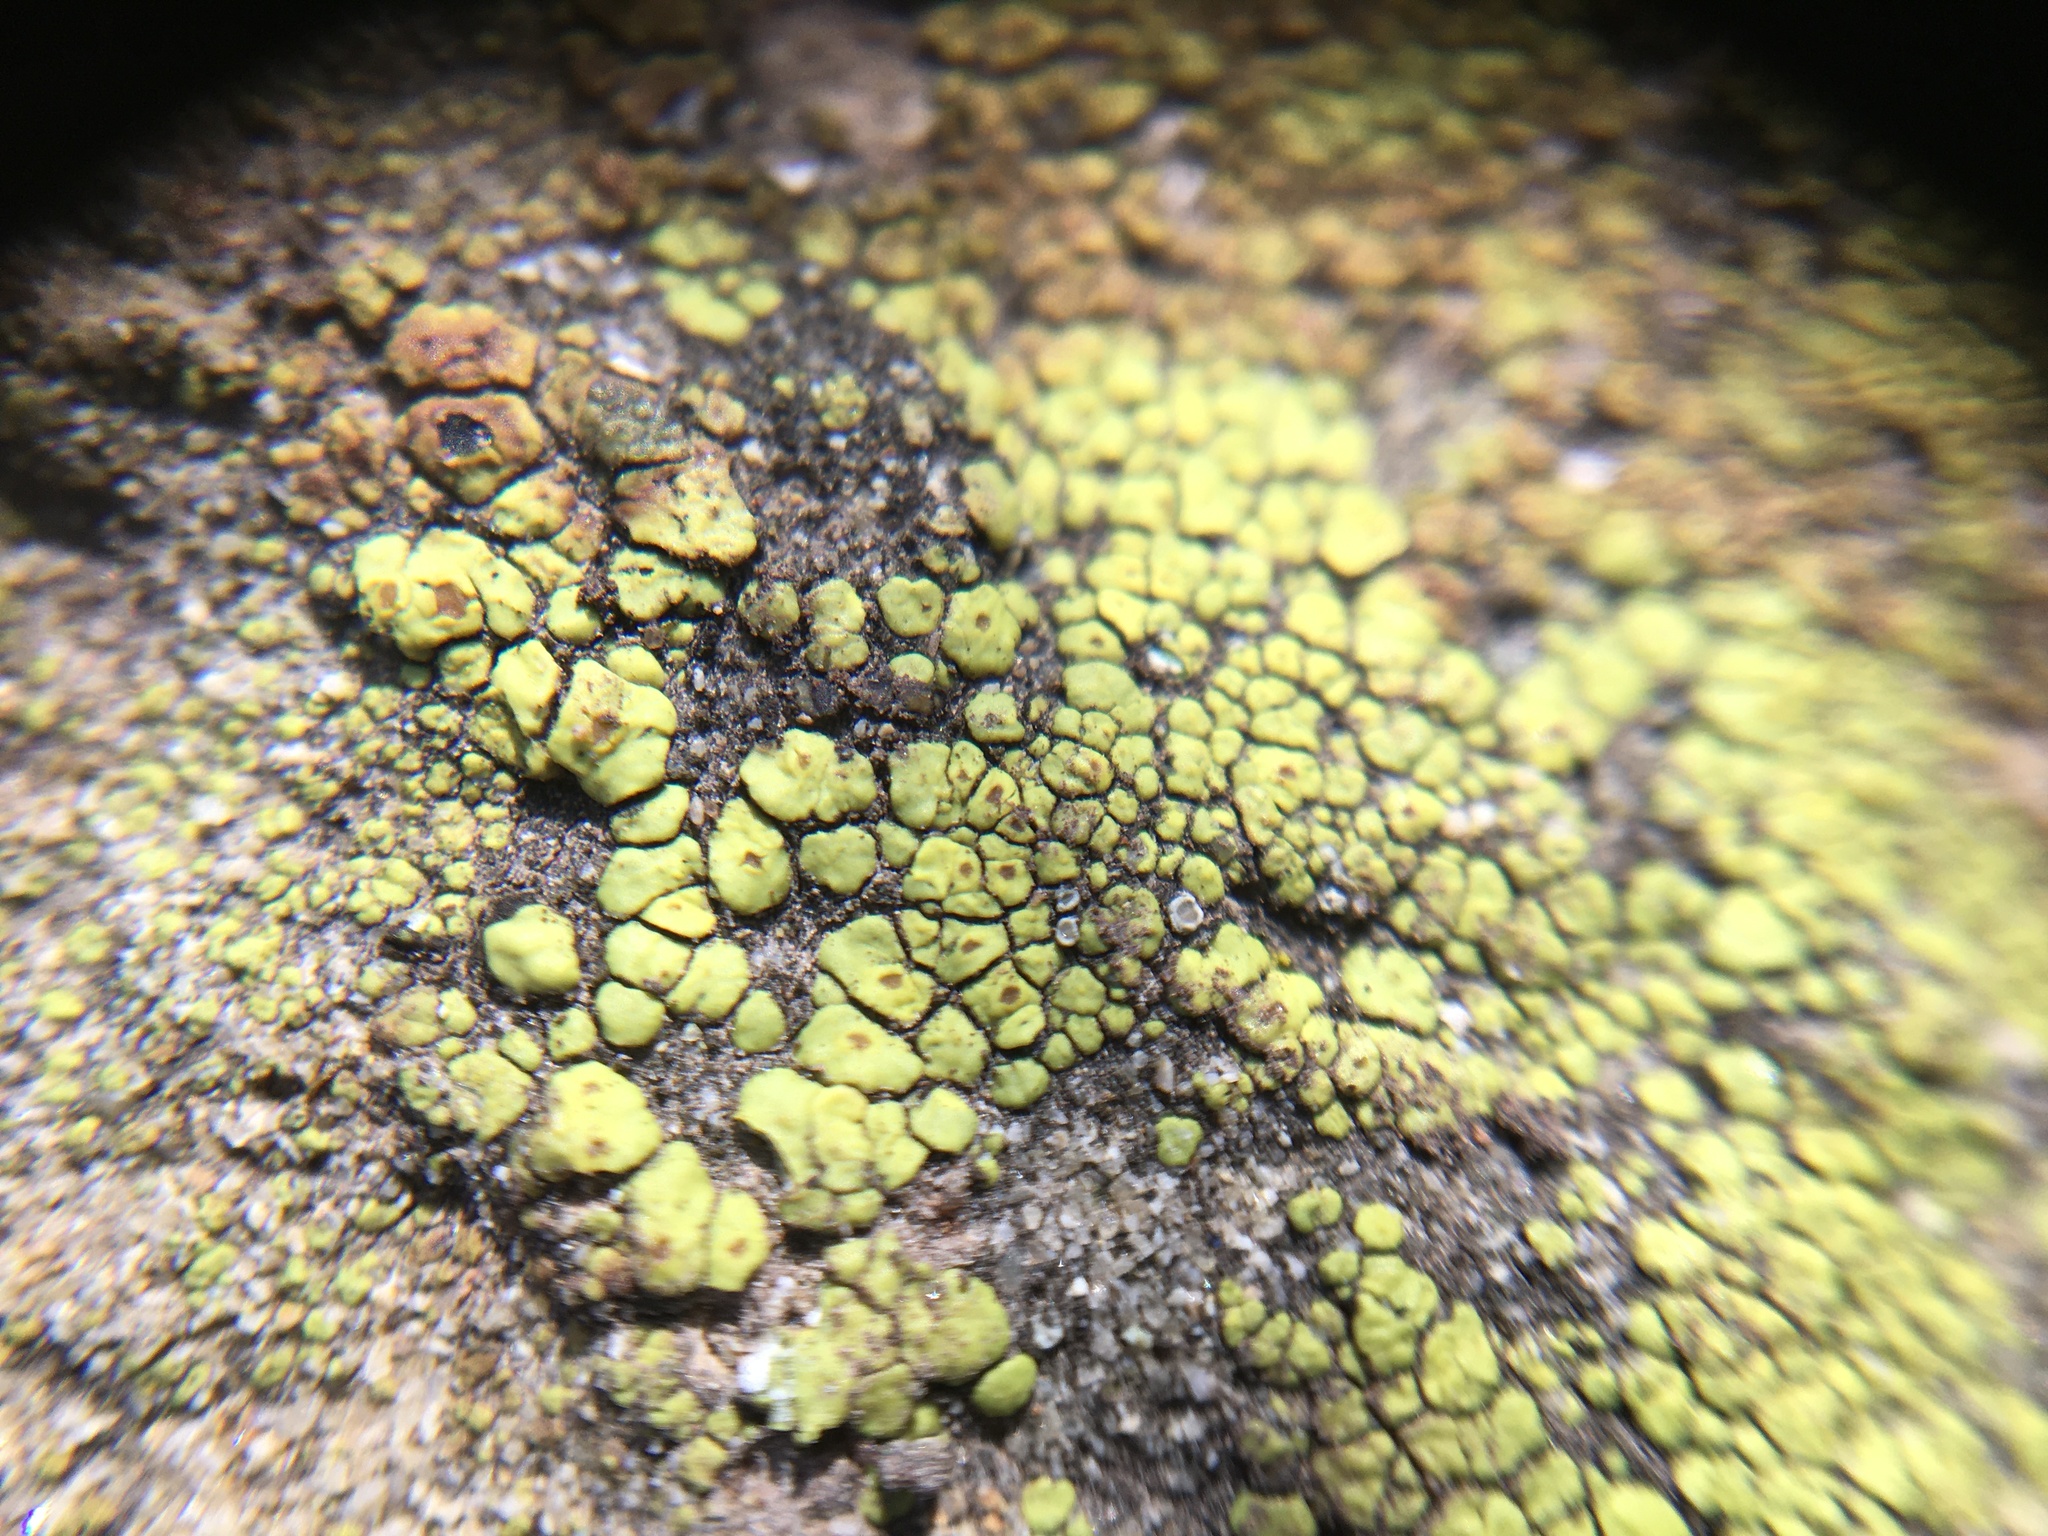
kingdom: Fungi
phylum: Ascomycota
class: Lecanoromycetes
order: Acarosporales
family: Acarosporaceae
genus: Acarospora
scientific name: Acarospora socialis
